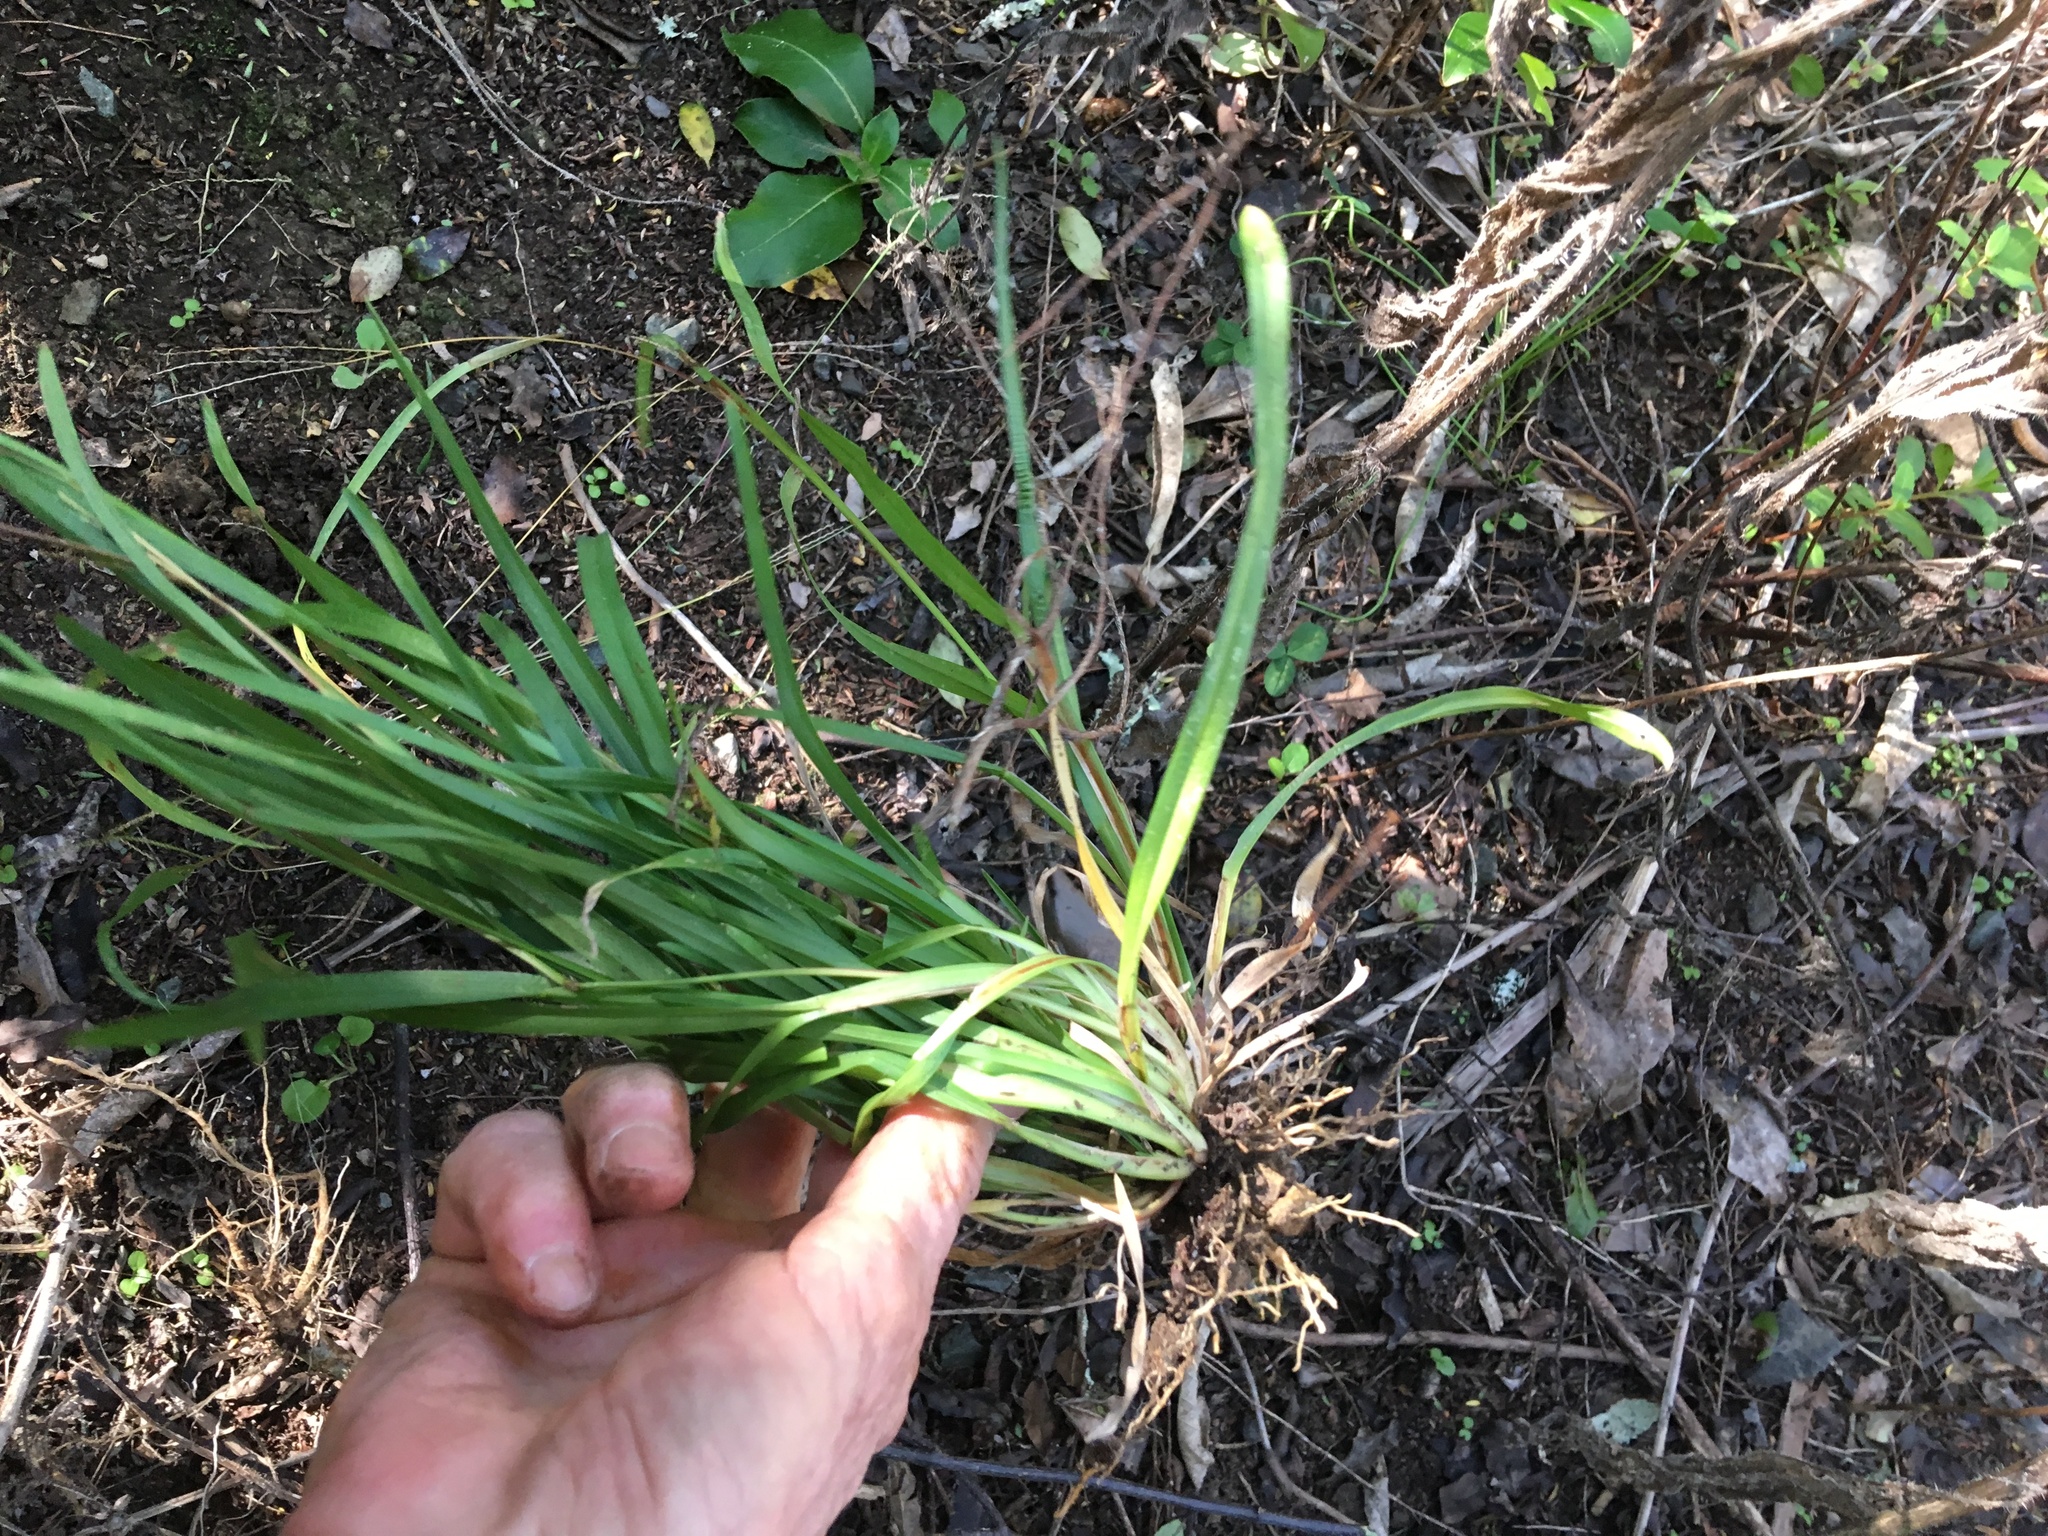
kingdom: Plantae
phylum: Tracheophyta
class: Liliopsida
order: Poales
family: Poaceae
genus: Axonopus
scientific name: Axonopus fissifolius
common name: Common carpetgrass
